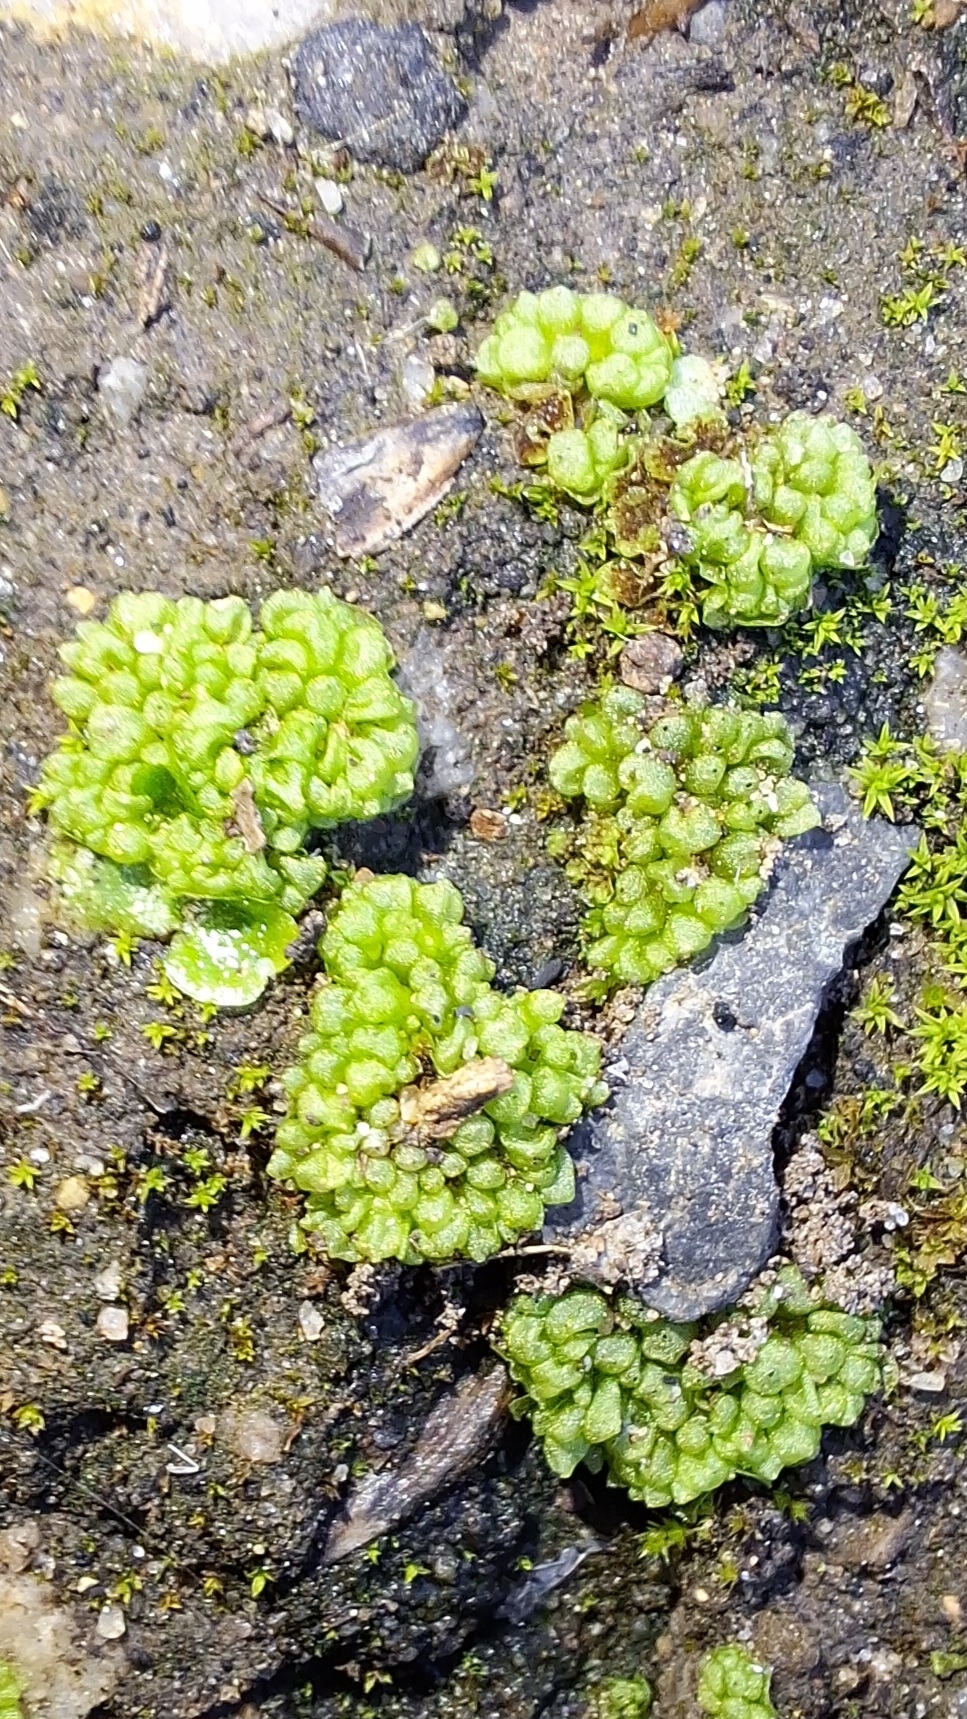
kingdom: Plantae
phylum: Marchantiophyta
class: Marchantiopsida
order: Sphaerocarpales
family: Sphaerocarpaceae
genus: Sphaerocarpos
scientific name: Sphaerocarpos texanus
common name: Texas balloonwort
